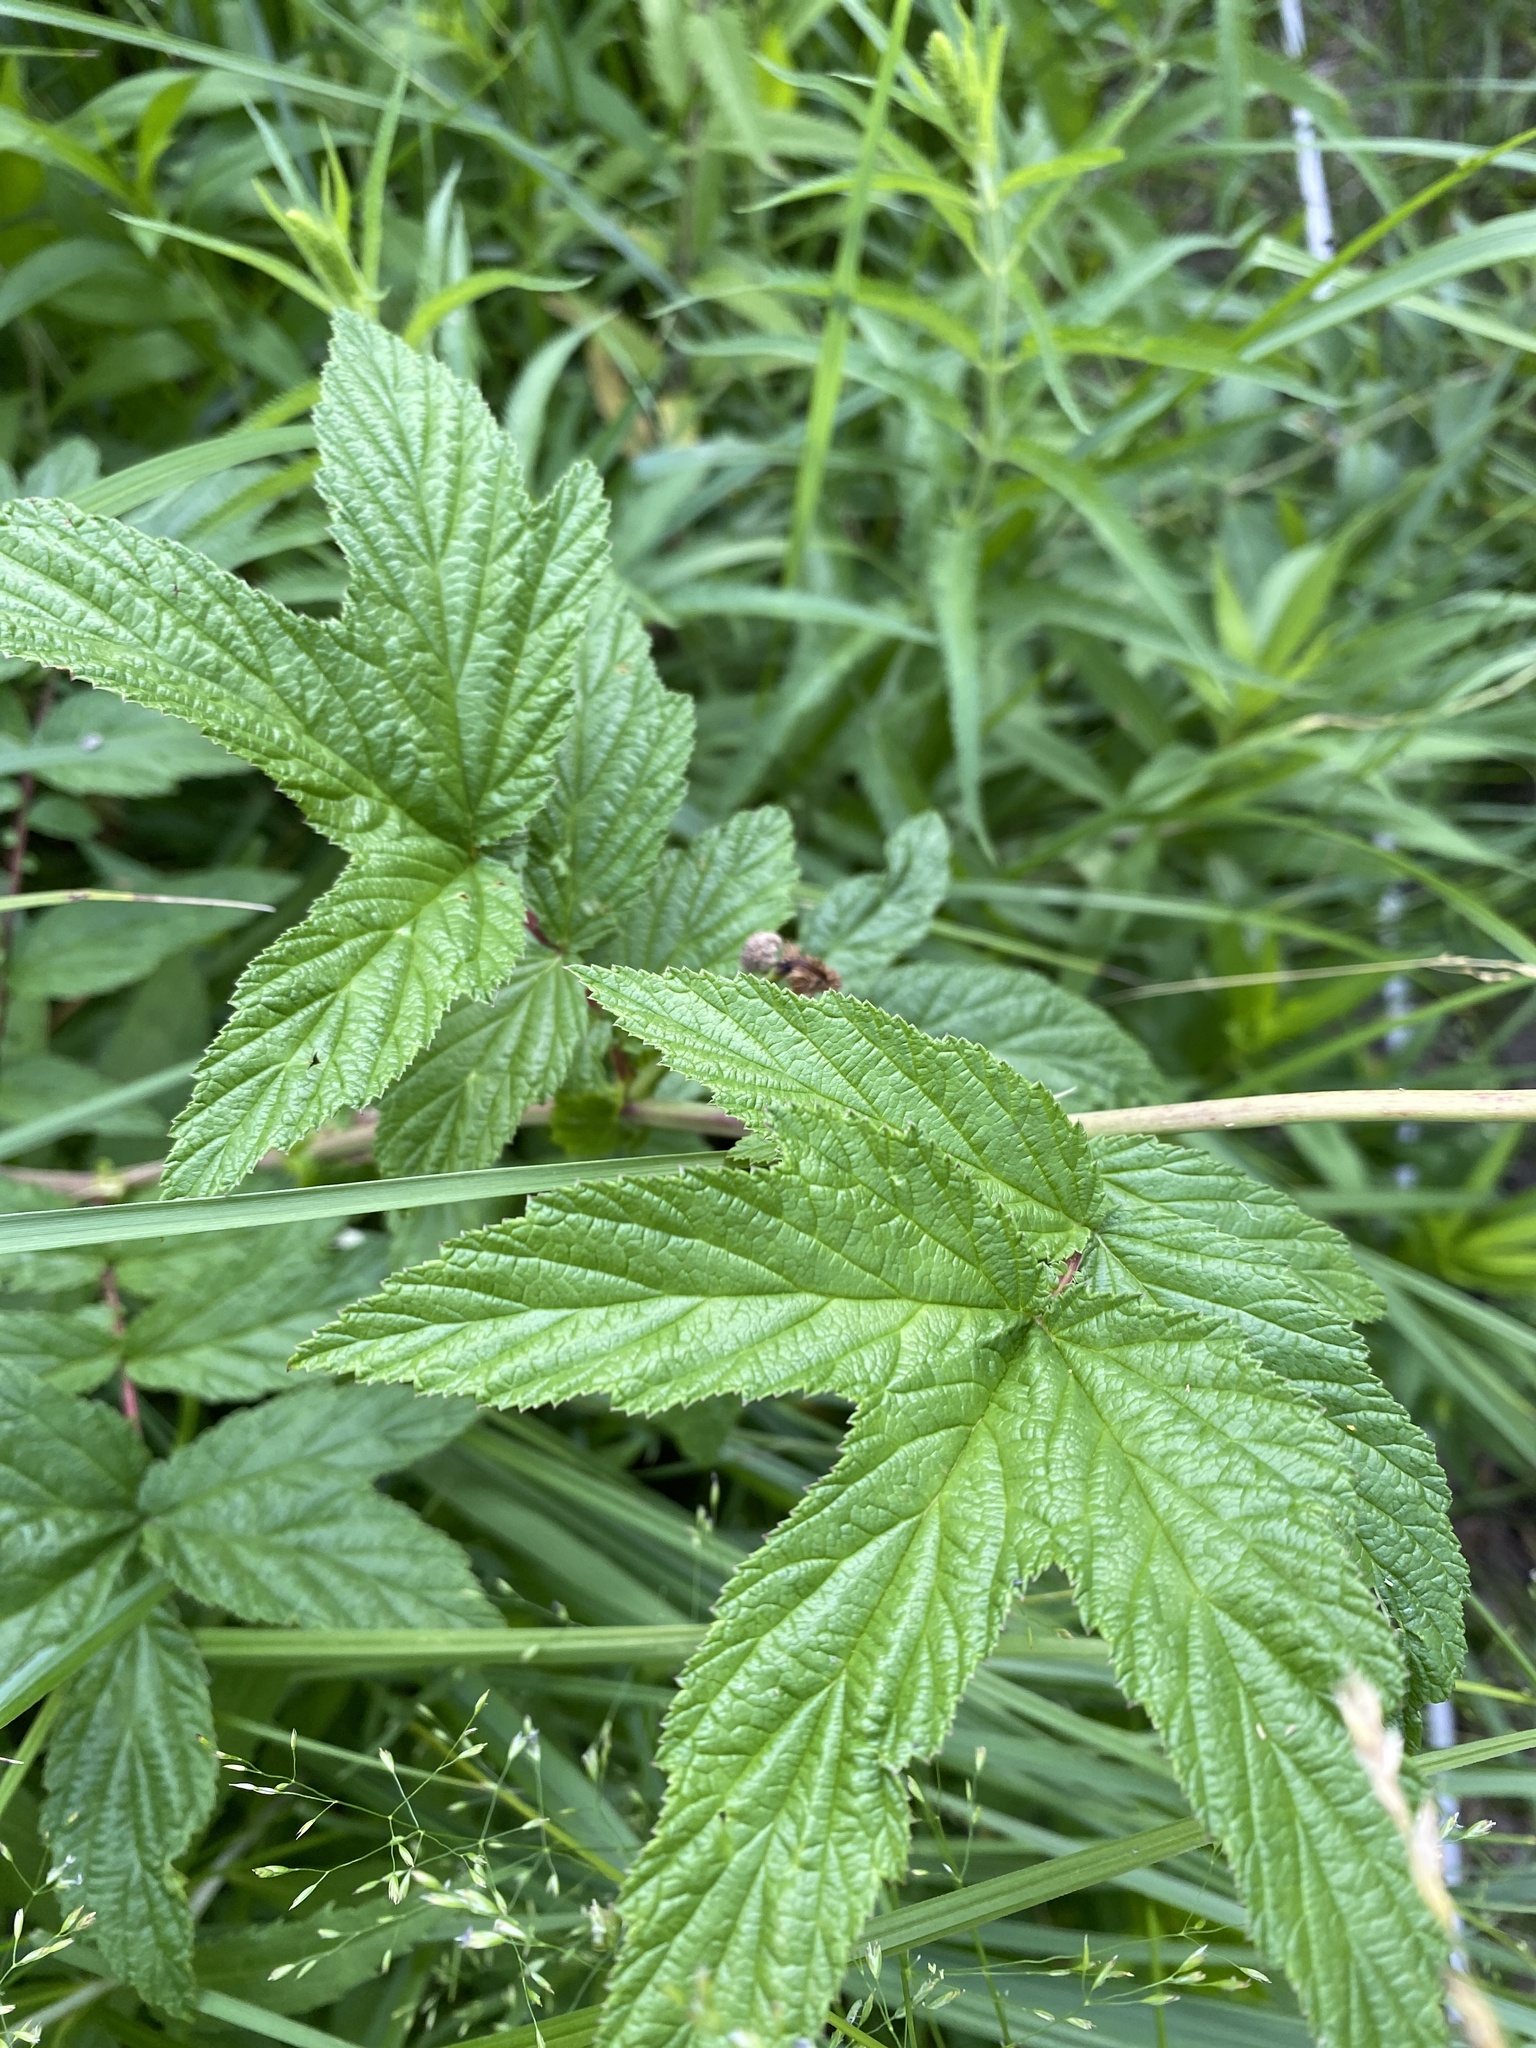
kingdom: Plantae
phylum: Tracheophyta
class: Magnoliopsida
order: Rosales
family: Rosaceae
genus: Filipendula
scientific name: Filipendula ulmaria
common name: Meadowsweet
